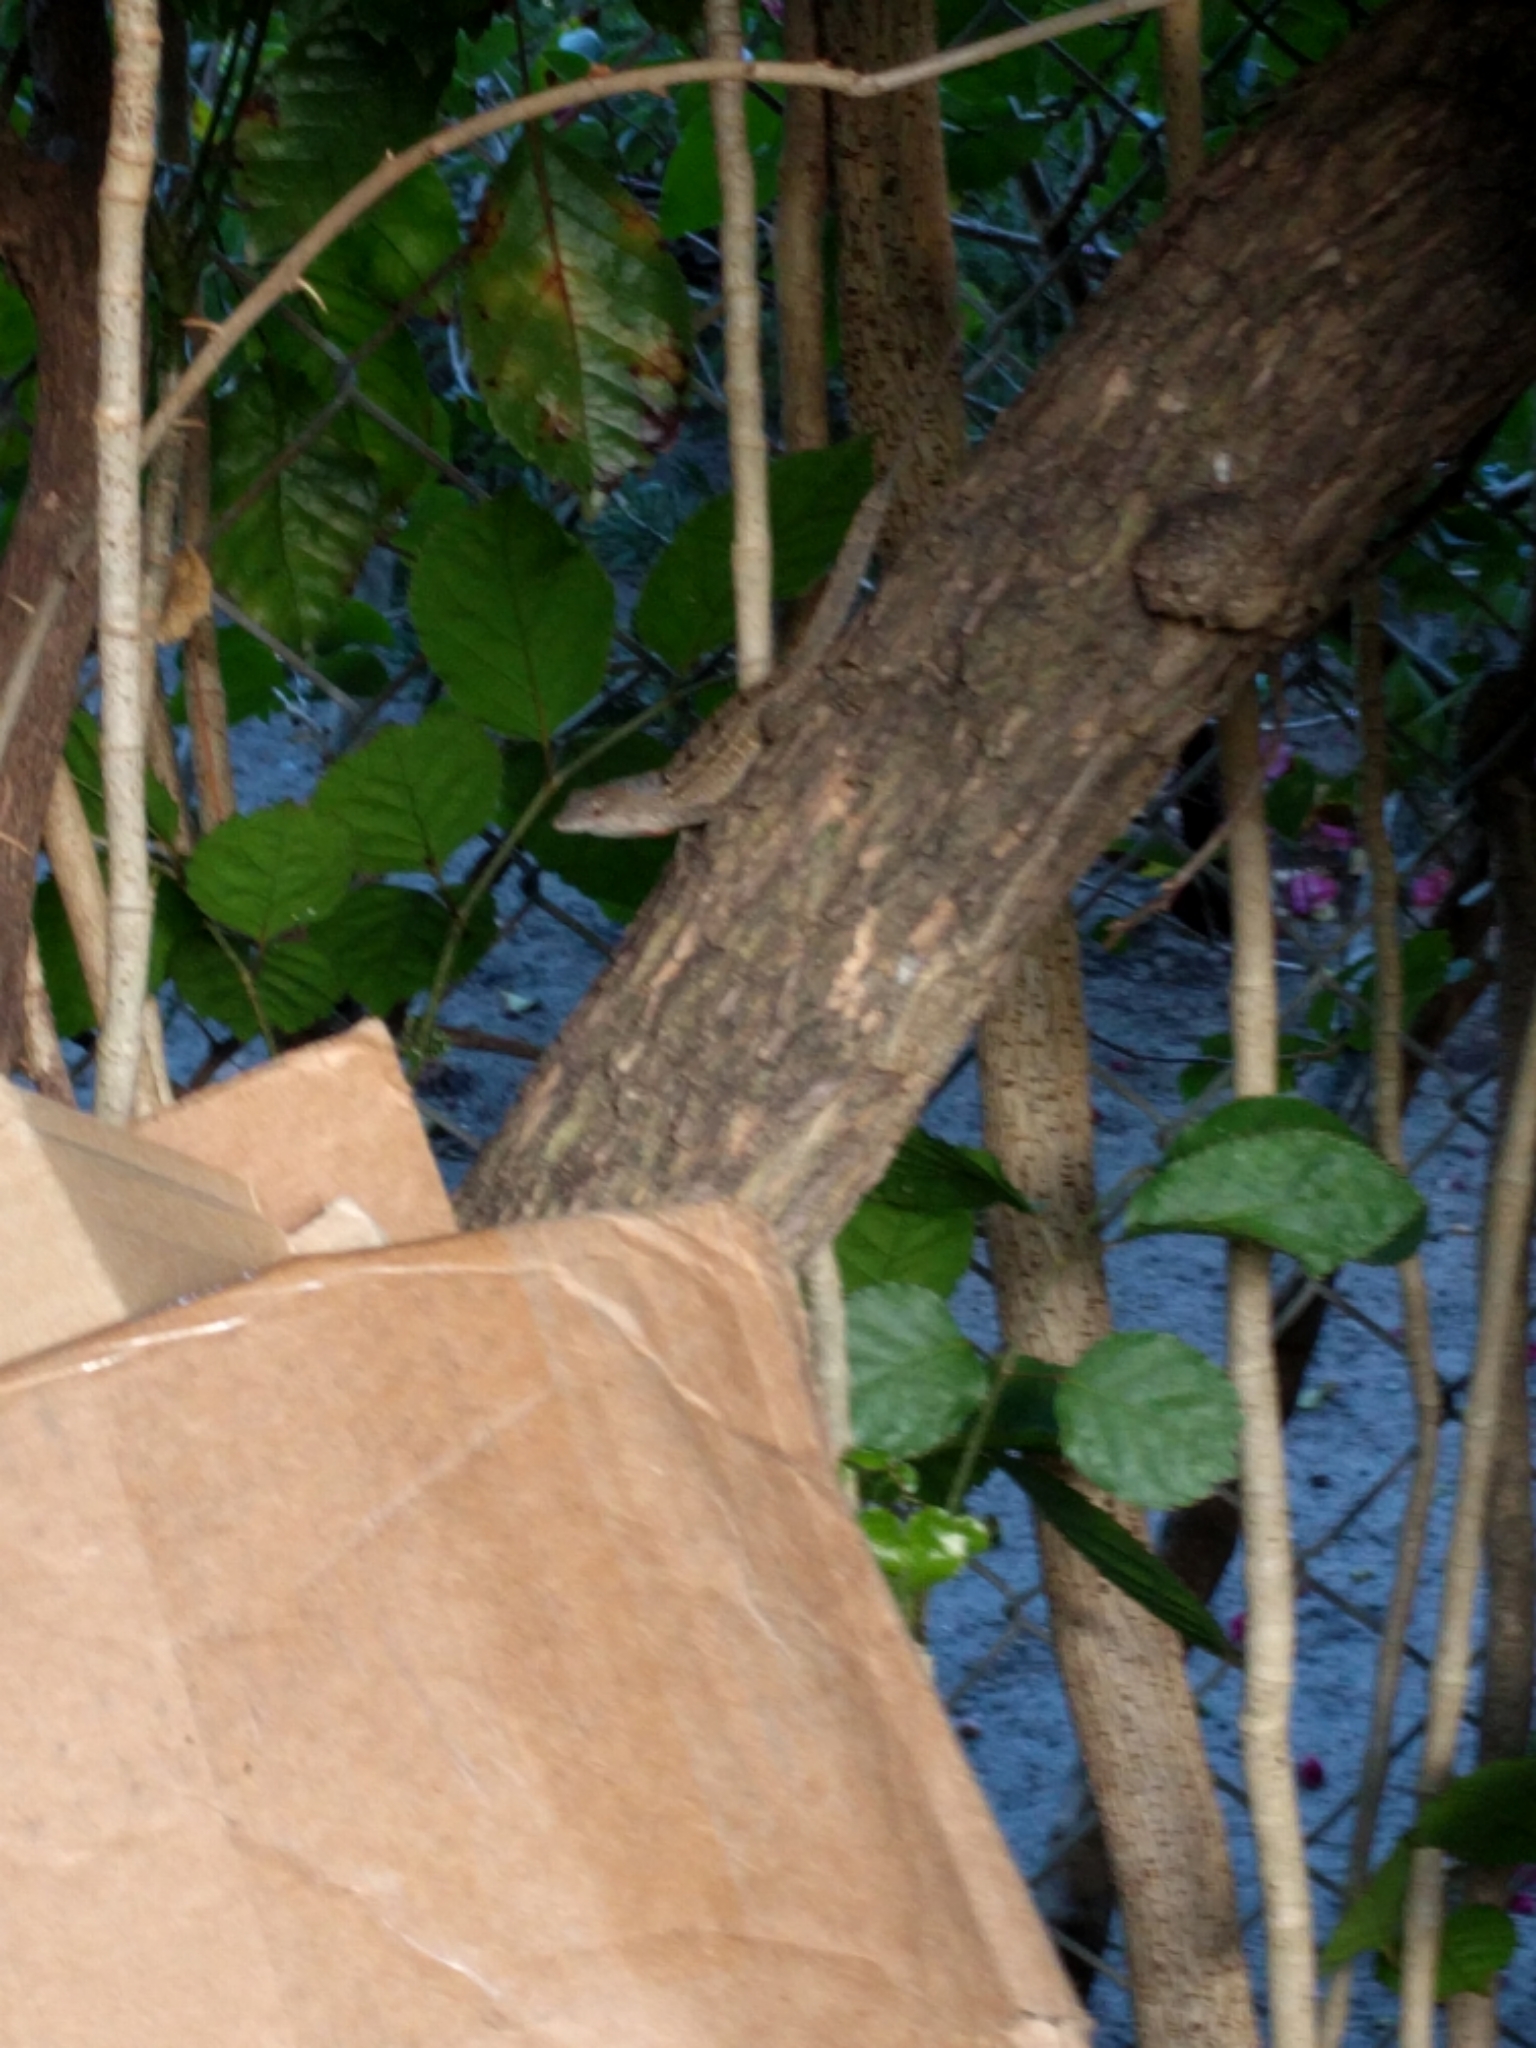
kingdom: Animalia
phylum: Chordata
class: Squamata
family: Dactyloidae
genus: Anolis
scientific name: Anolis sagrei
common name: Brown anole
